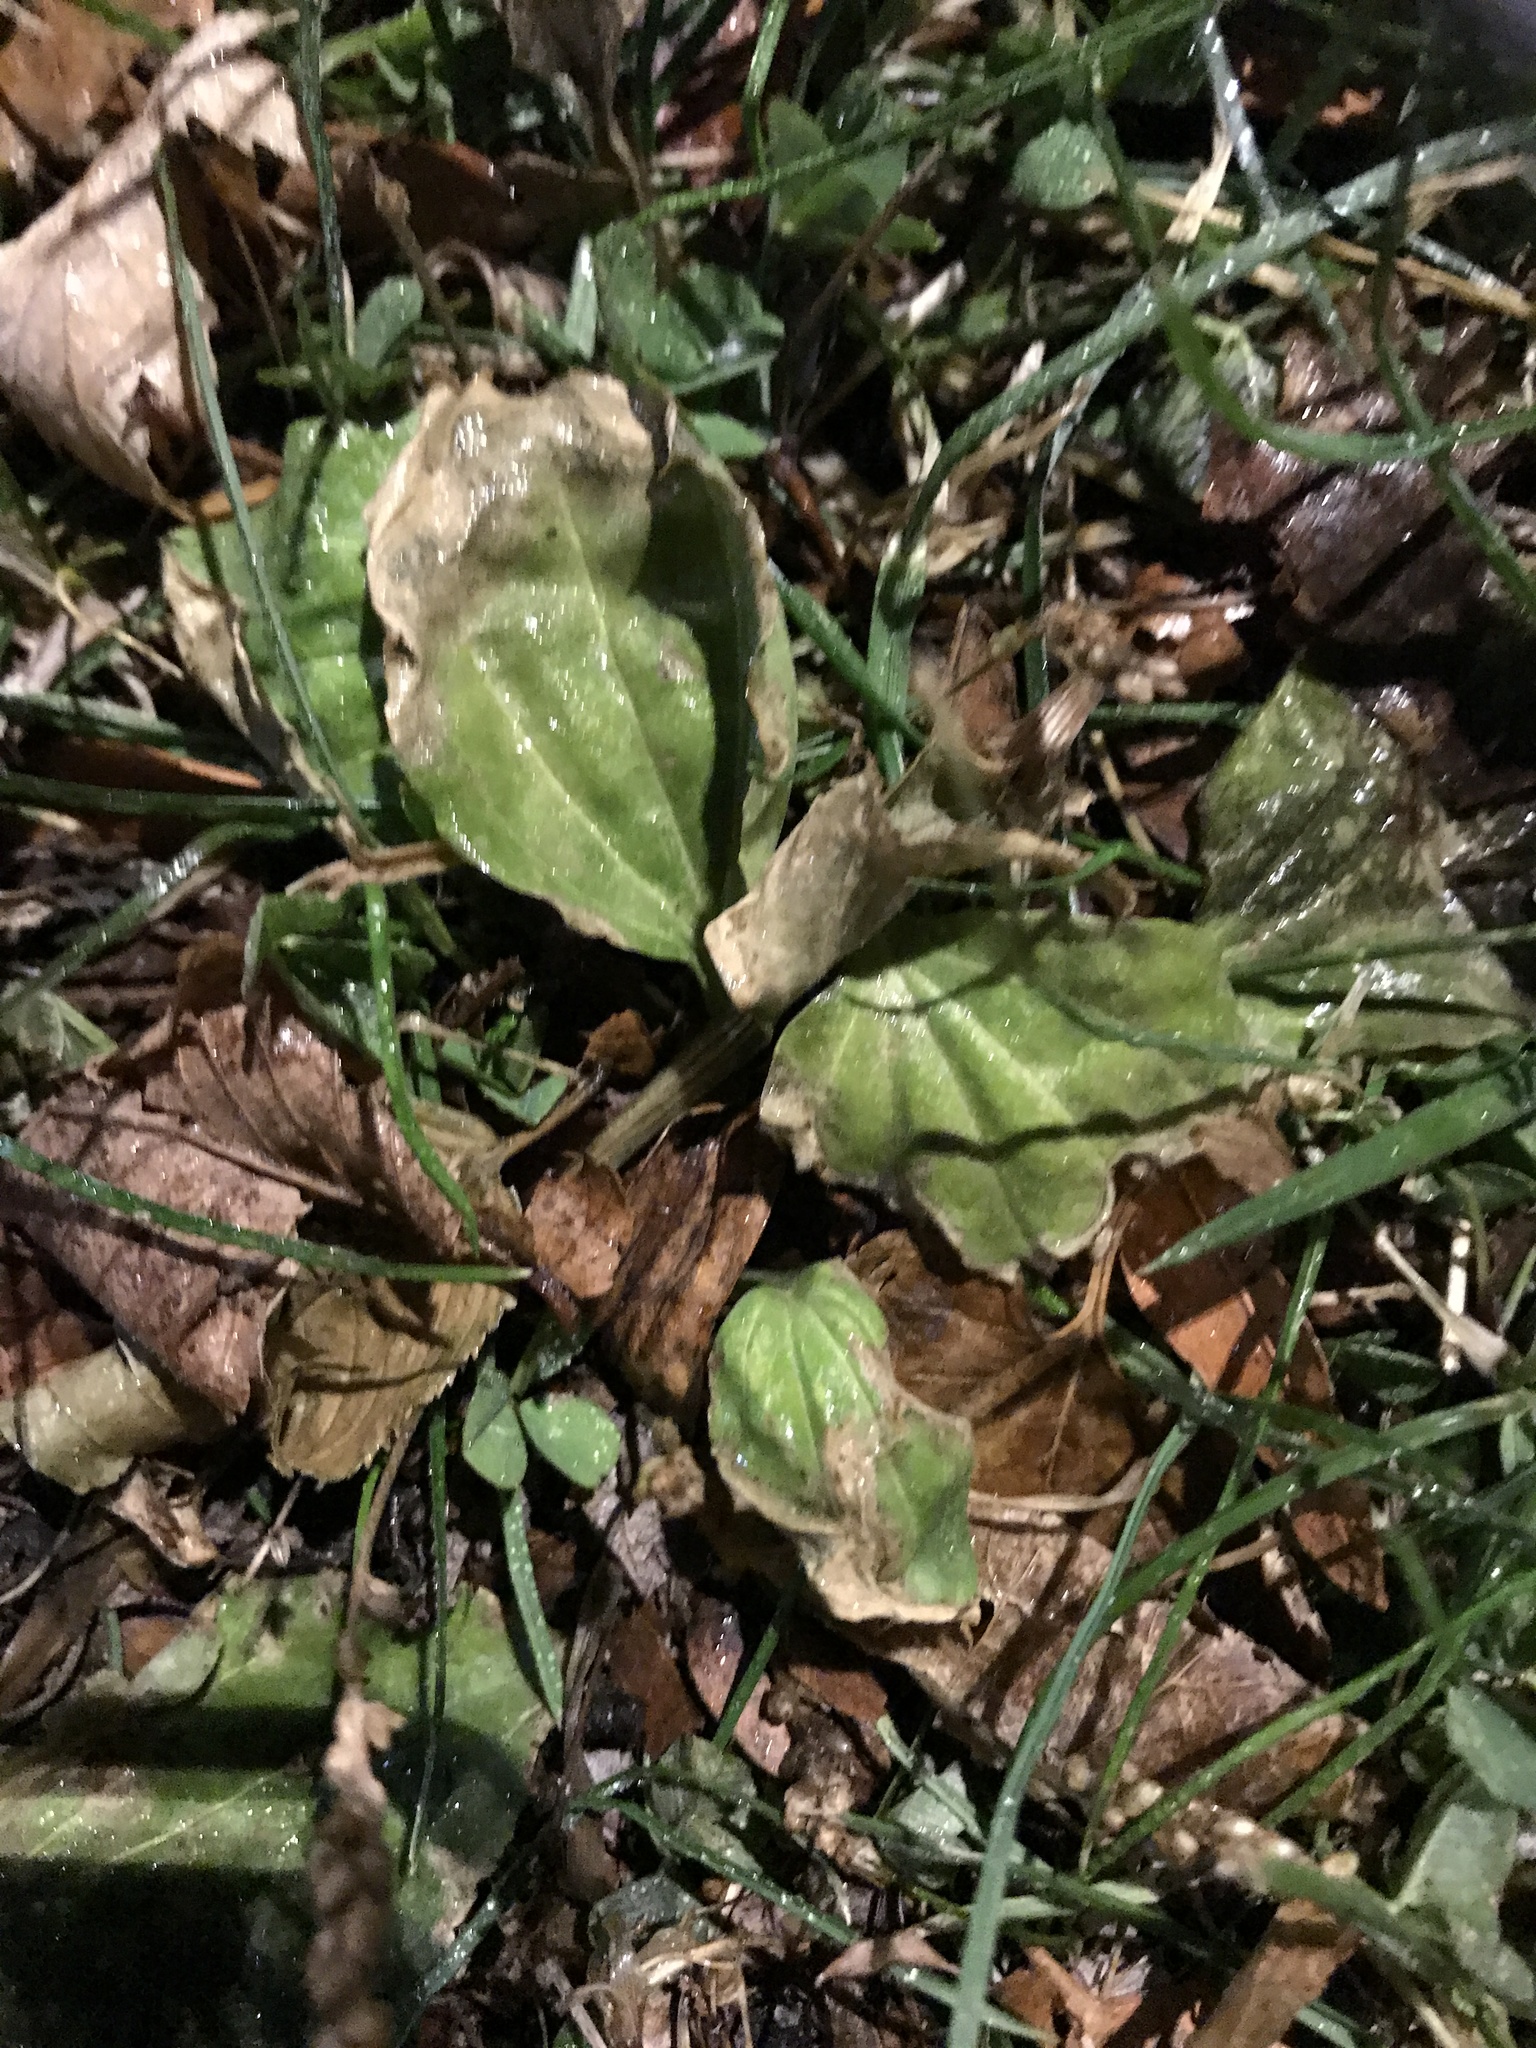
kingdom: Plantae
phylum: Tracheophyta
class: Magnoliopsida
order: Lamiales
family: Plantaginaceae
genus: Plantago
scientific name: Plantago major
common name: Common plantain
